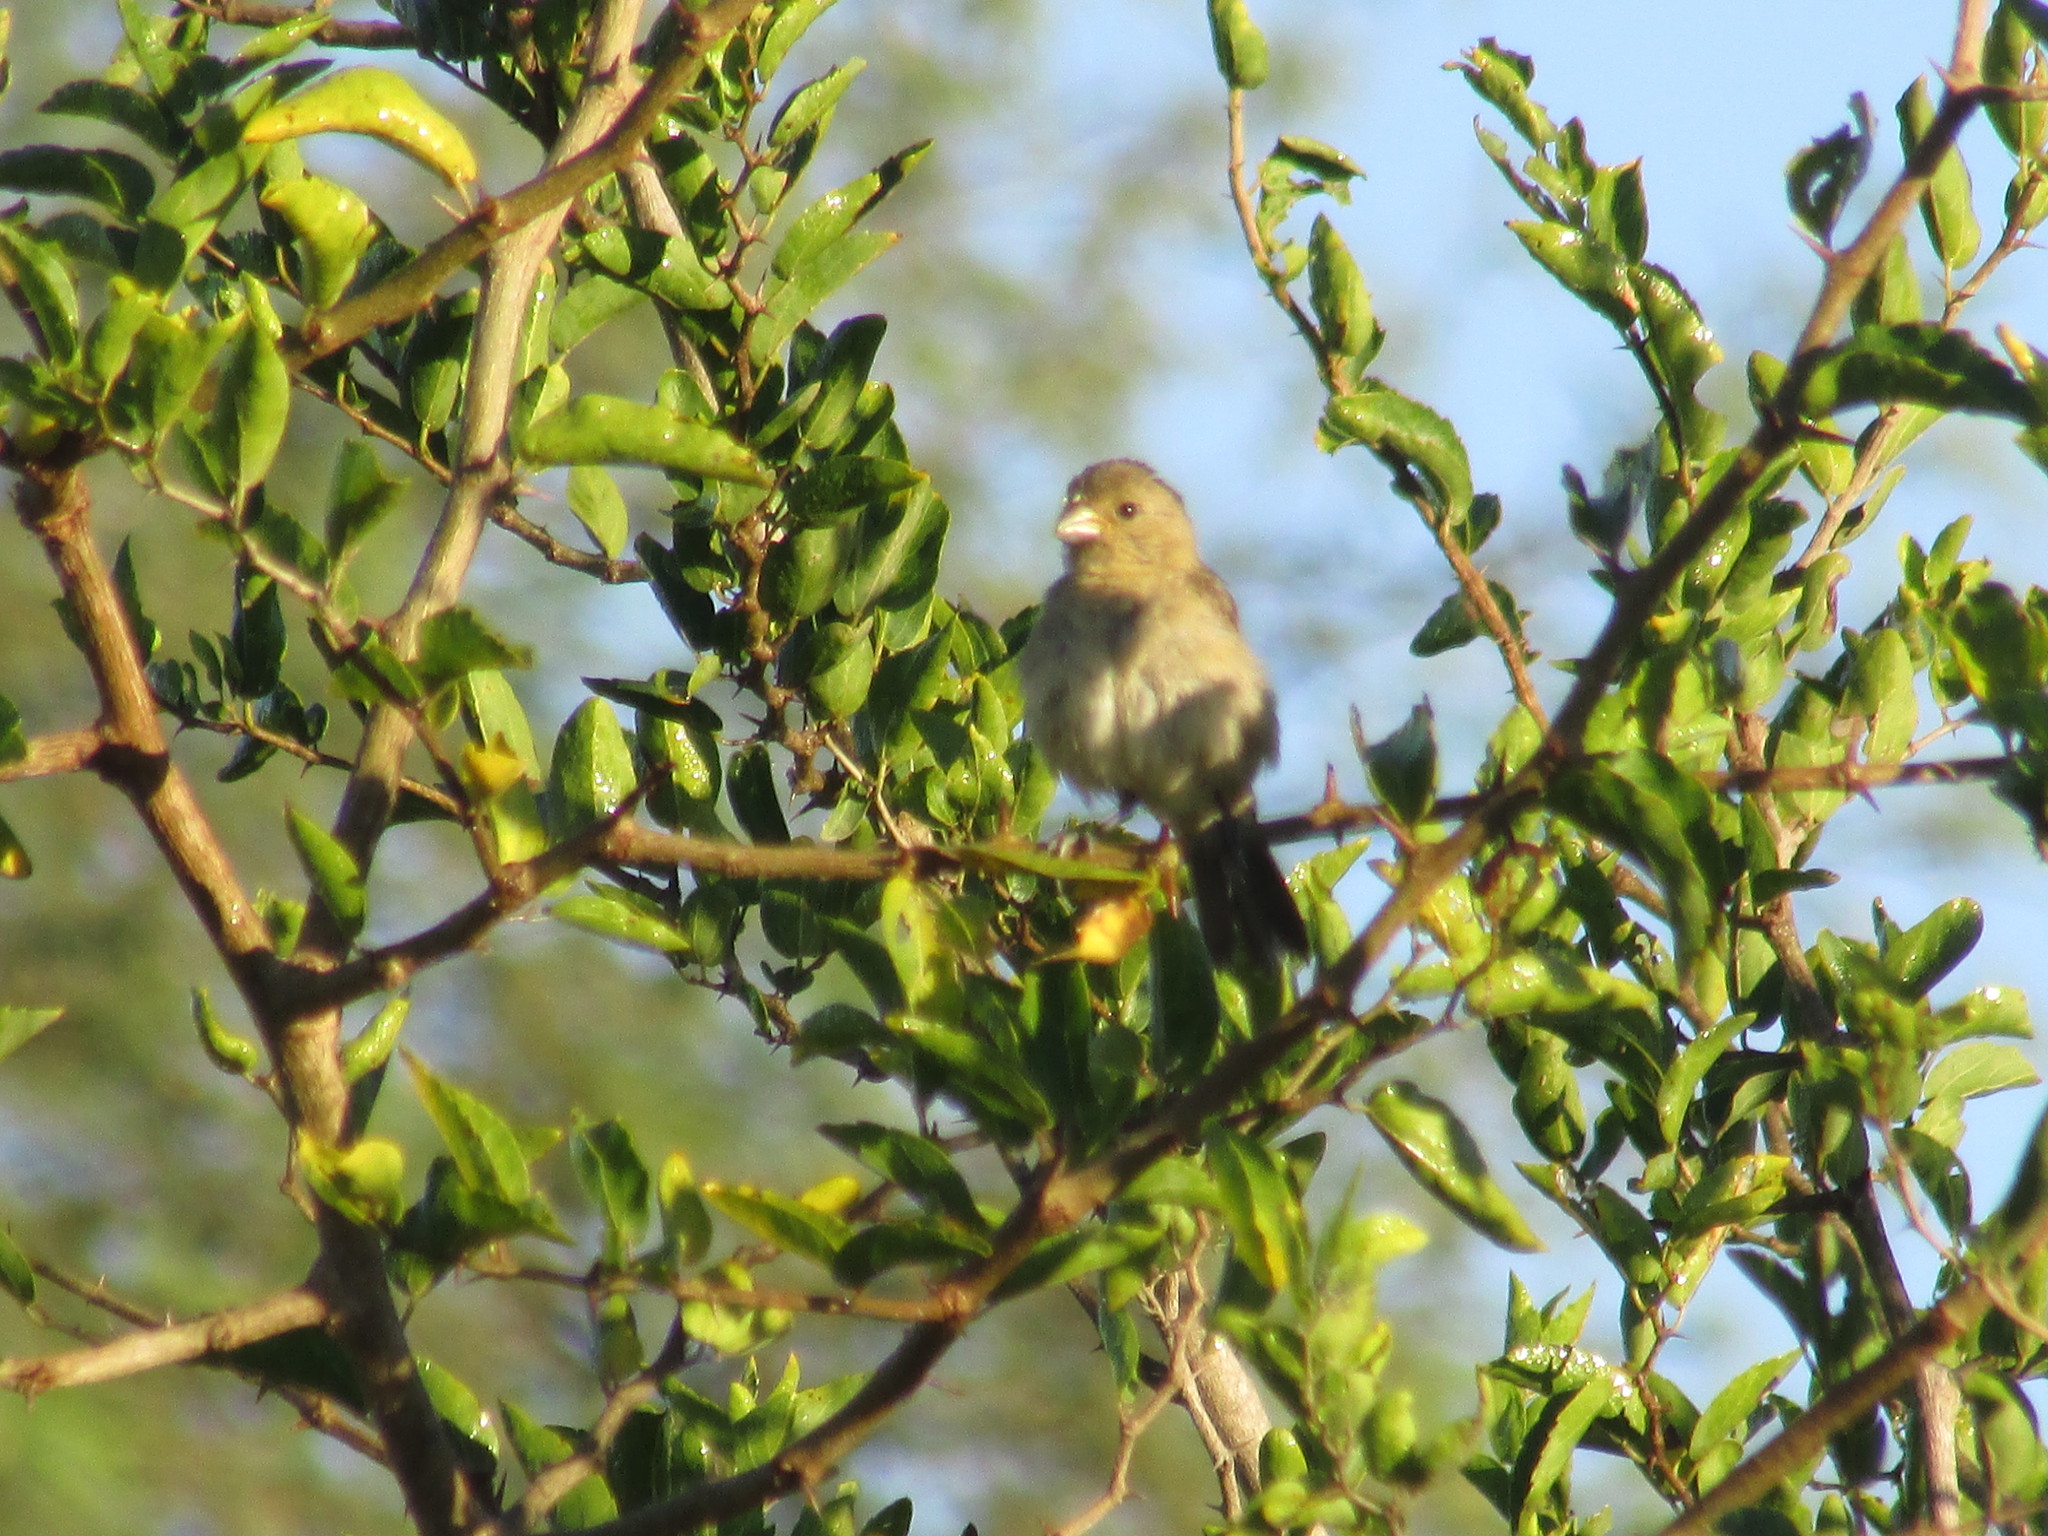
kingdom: Animalia
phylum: Chordata
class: Aves
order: Passeriformes
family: Thraupidae
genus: Sporophila
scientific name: Sporophila caerulescens
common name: Double-collared seedeater
